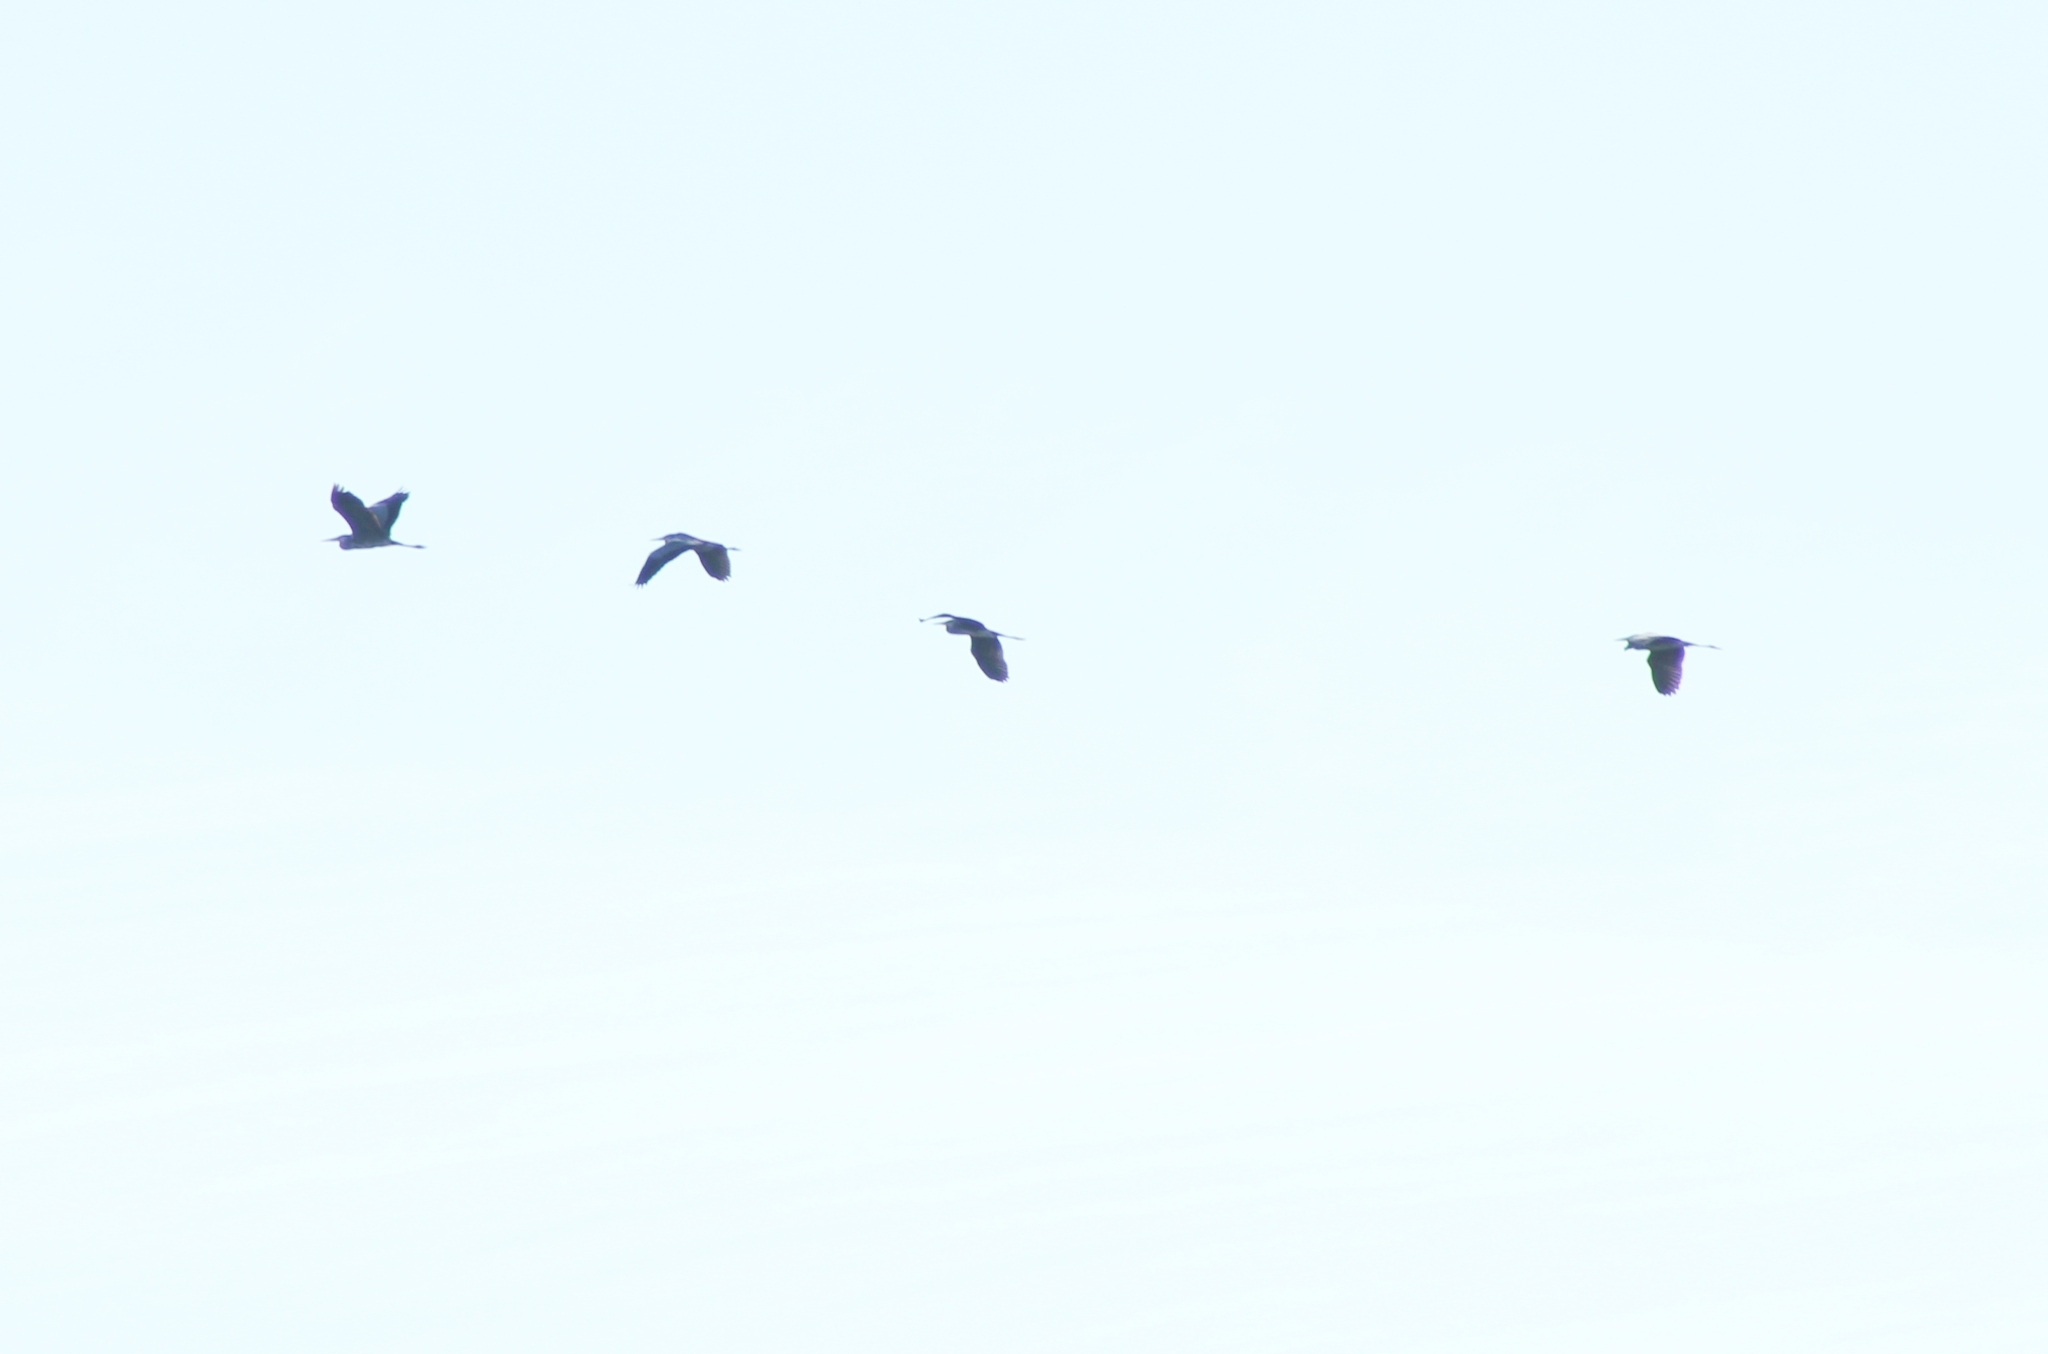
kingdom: Animalia
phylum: Chordata
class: Aves
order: Pelecaniformes
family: Ardeidae
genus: Ardea
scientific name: Ardea cinerea
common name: Grey heron
